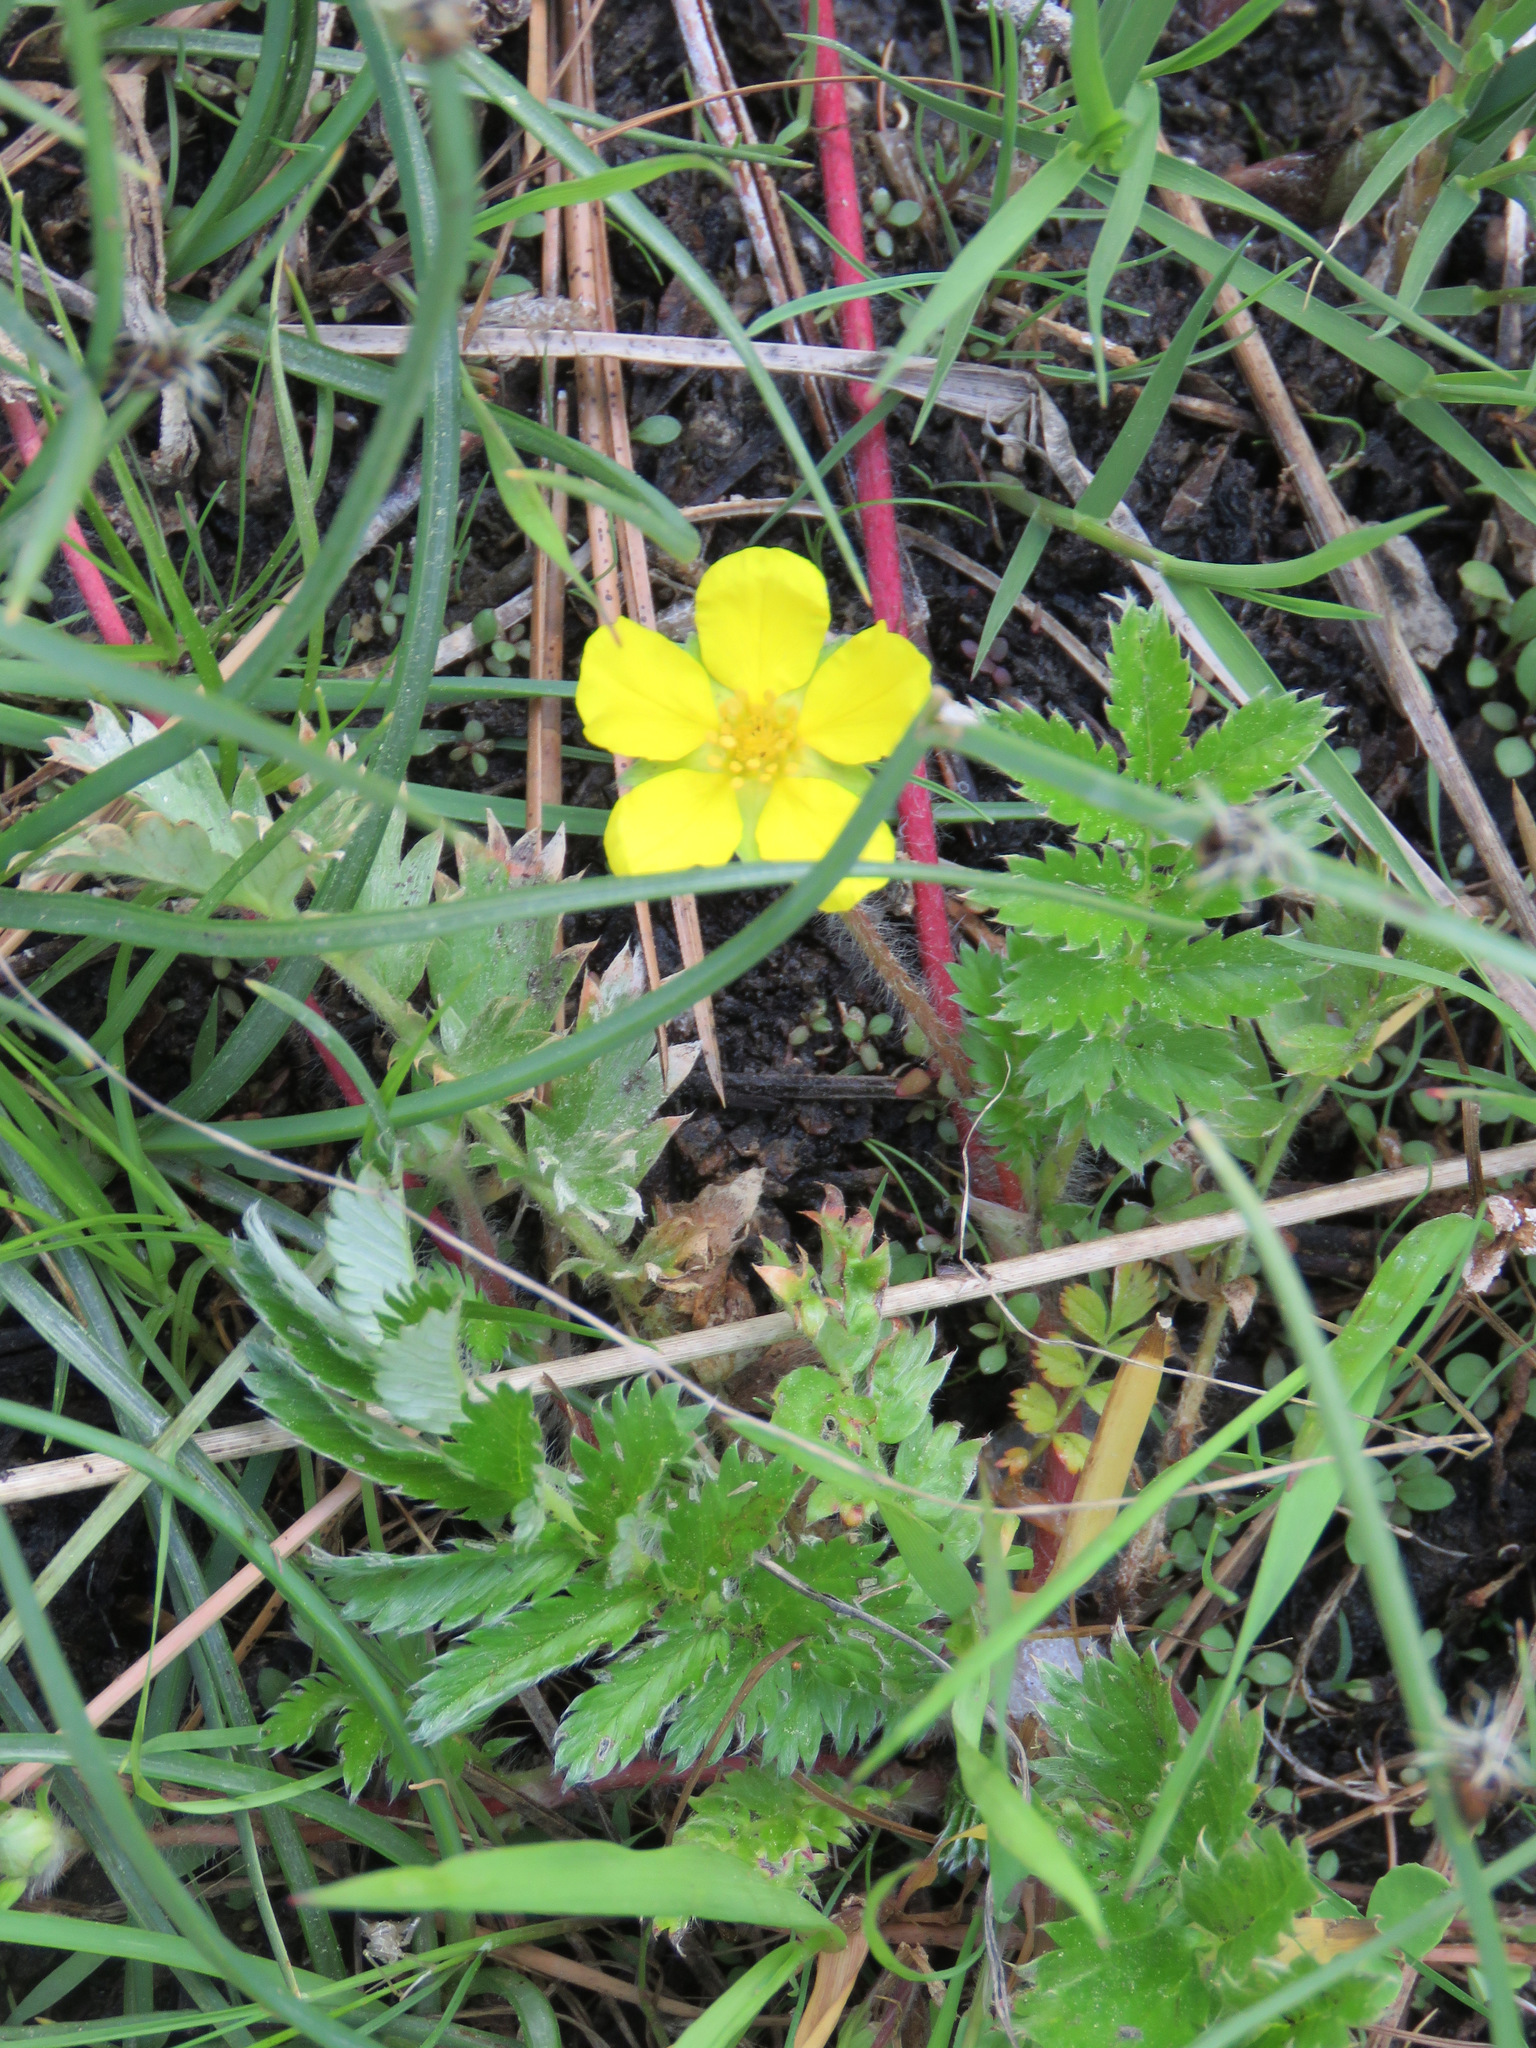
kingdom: Plantae
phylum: Tracheophyta
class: Magnoliopsida
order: Rosales
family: Rosaceae
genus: Argentina
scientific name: Argentina anserina
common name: Common silverweed
